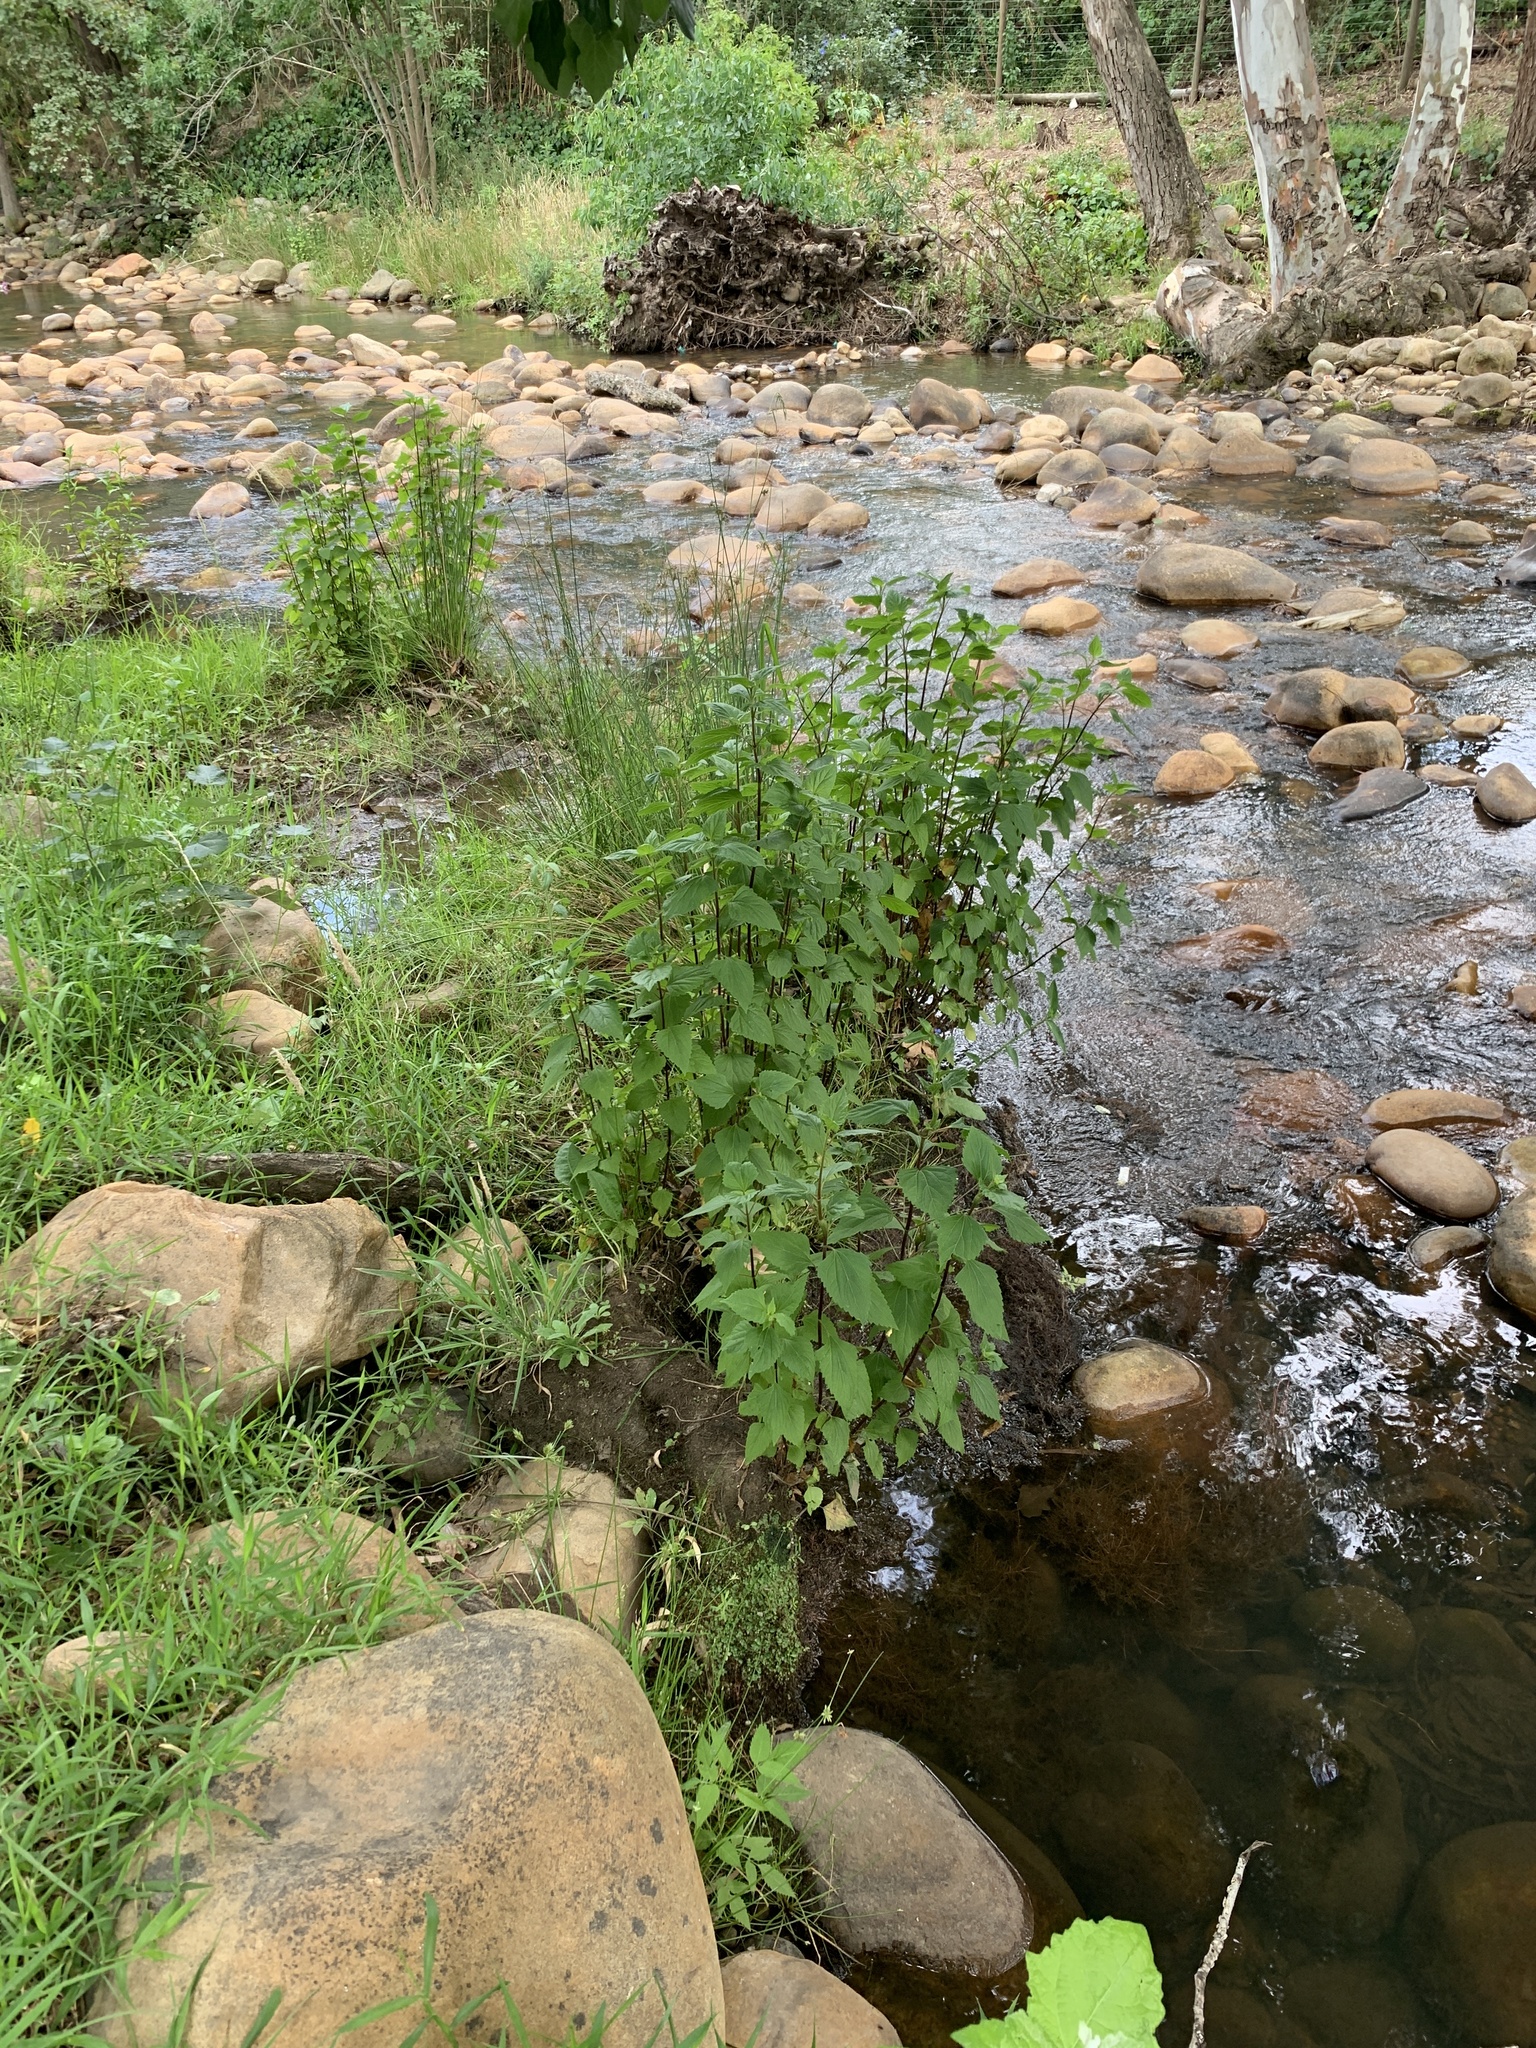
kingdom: Plantae
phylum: Tracheophyta
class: Magnoliopsida
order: Asterales
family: Asteraceae
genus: Ageratina
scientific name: Ageratina adenophora
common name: Sticky snakeroot
